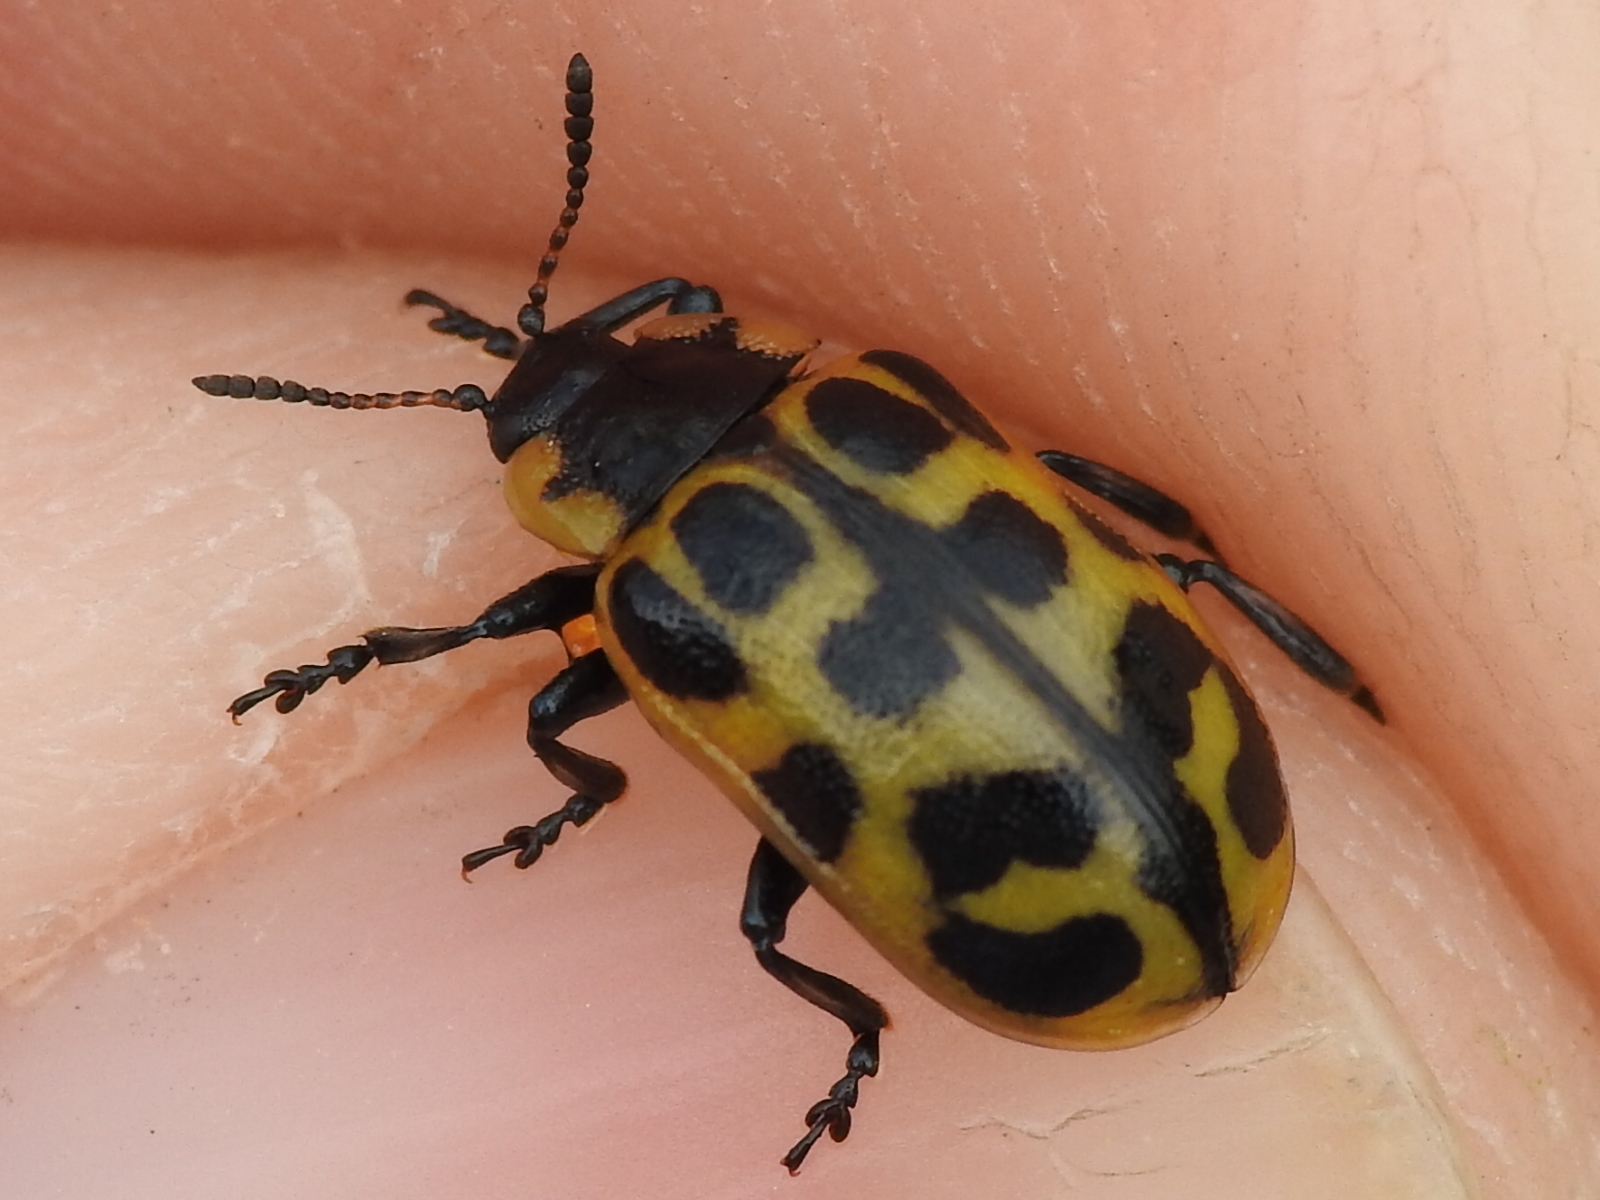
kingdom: Animalia
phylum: Arthropoda
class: Insecta
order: Coleoptera
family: Chrysomelidae
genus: Chrysomela
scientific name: Chrysomela knabi
